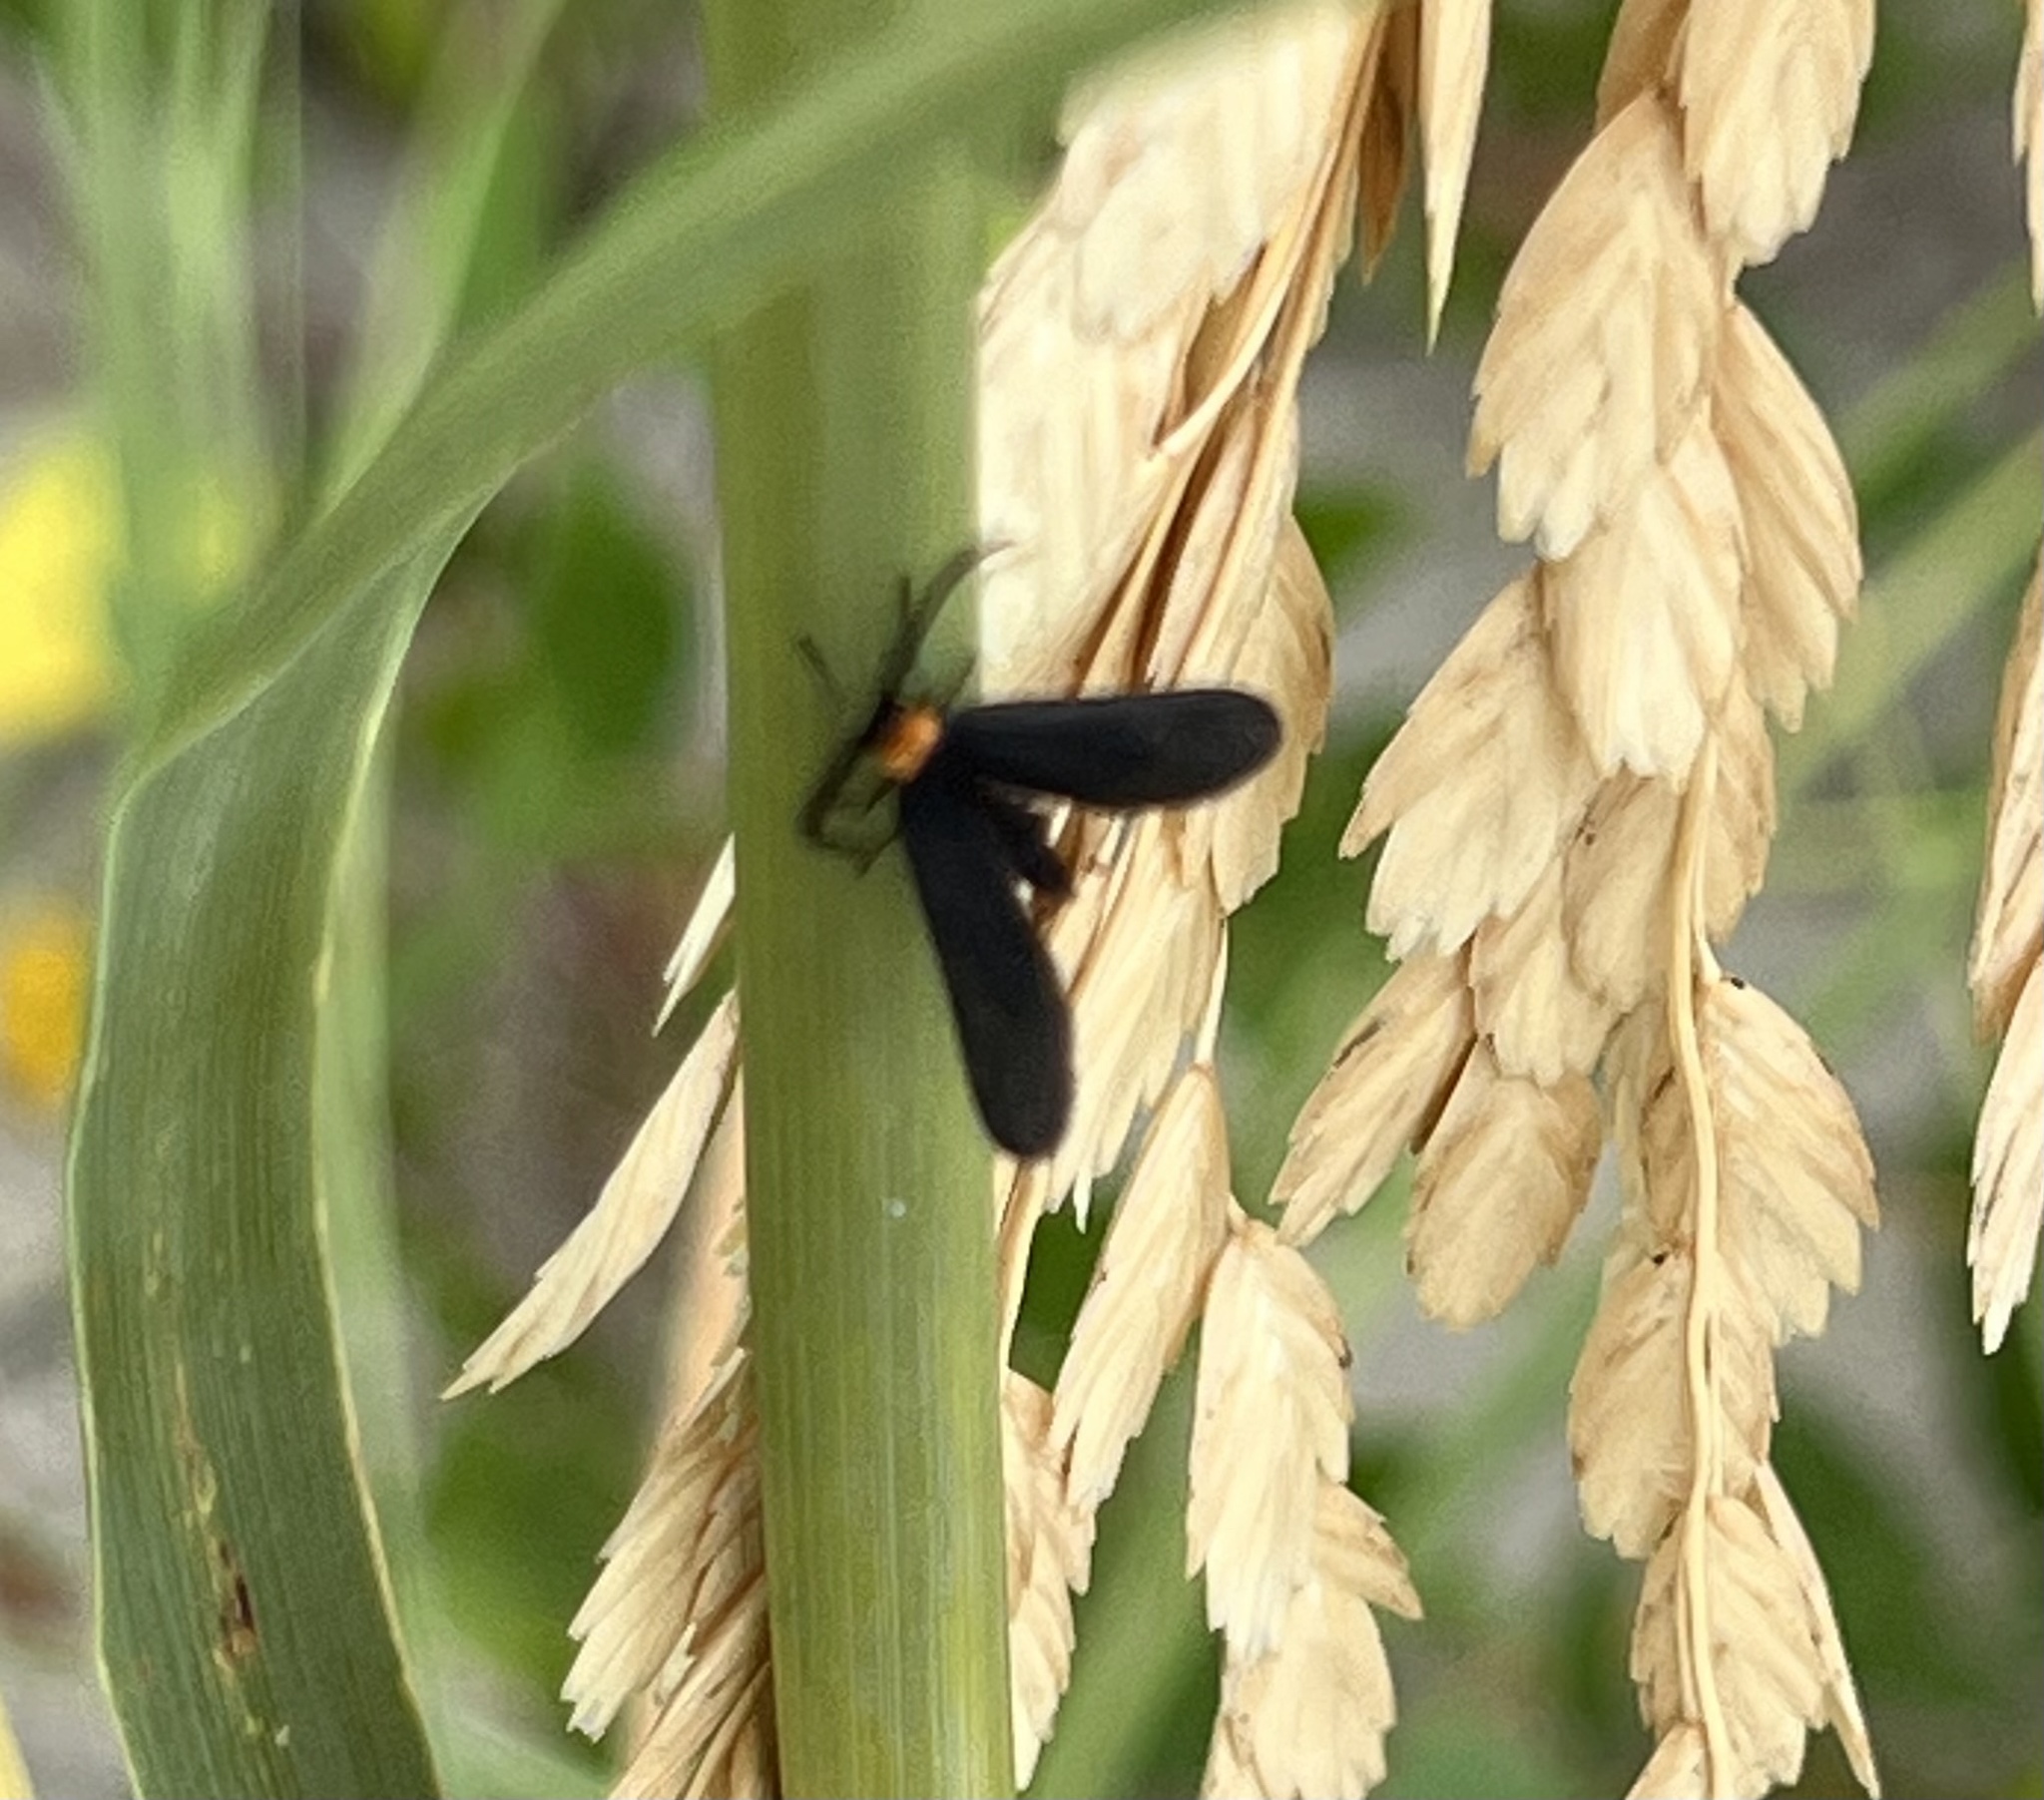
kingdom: Animalia
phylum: Arthropoda
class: Insecta
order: Lepidoptera
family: Zygaenidae
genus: Harrisina
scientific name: Harrisina americana
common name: Grapeleaf skeletonizer moth
